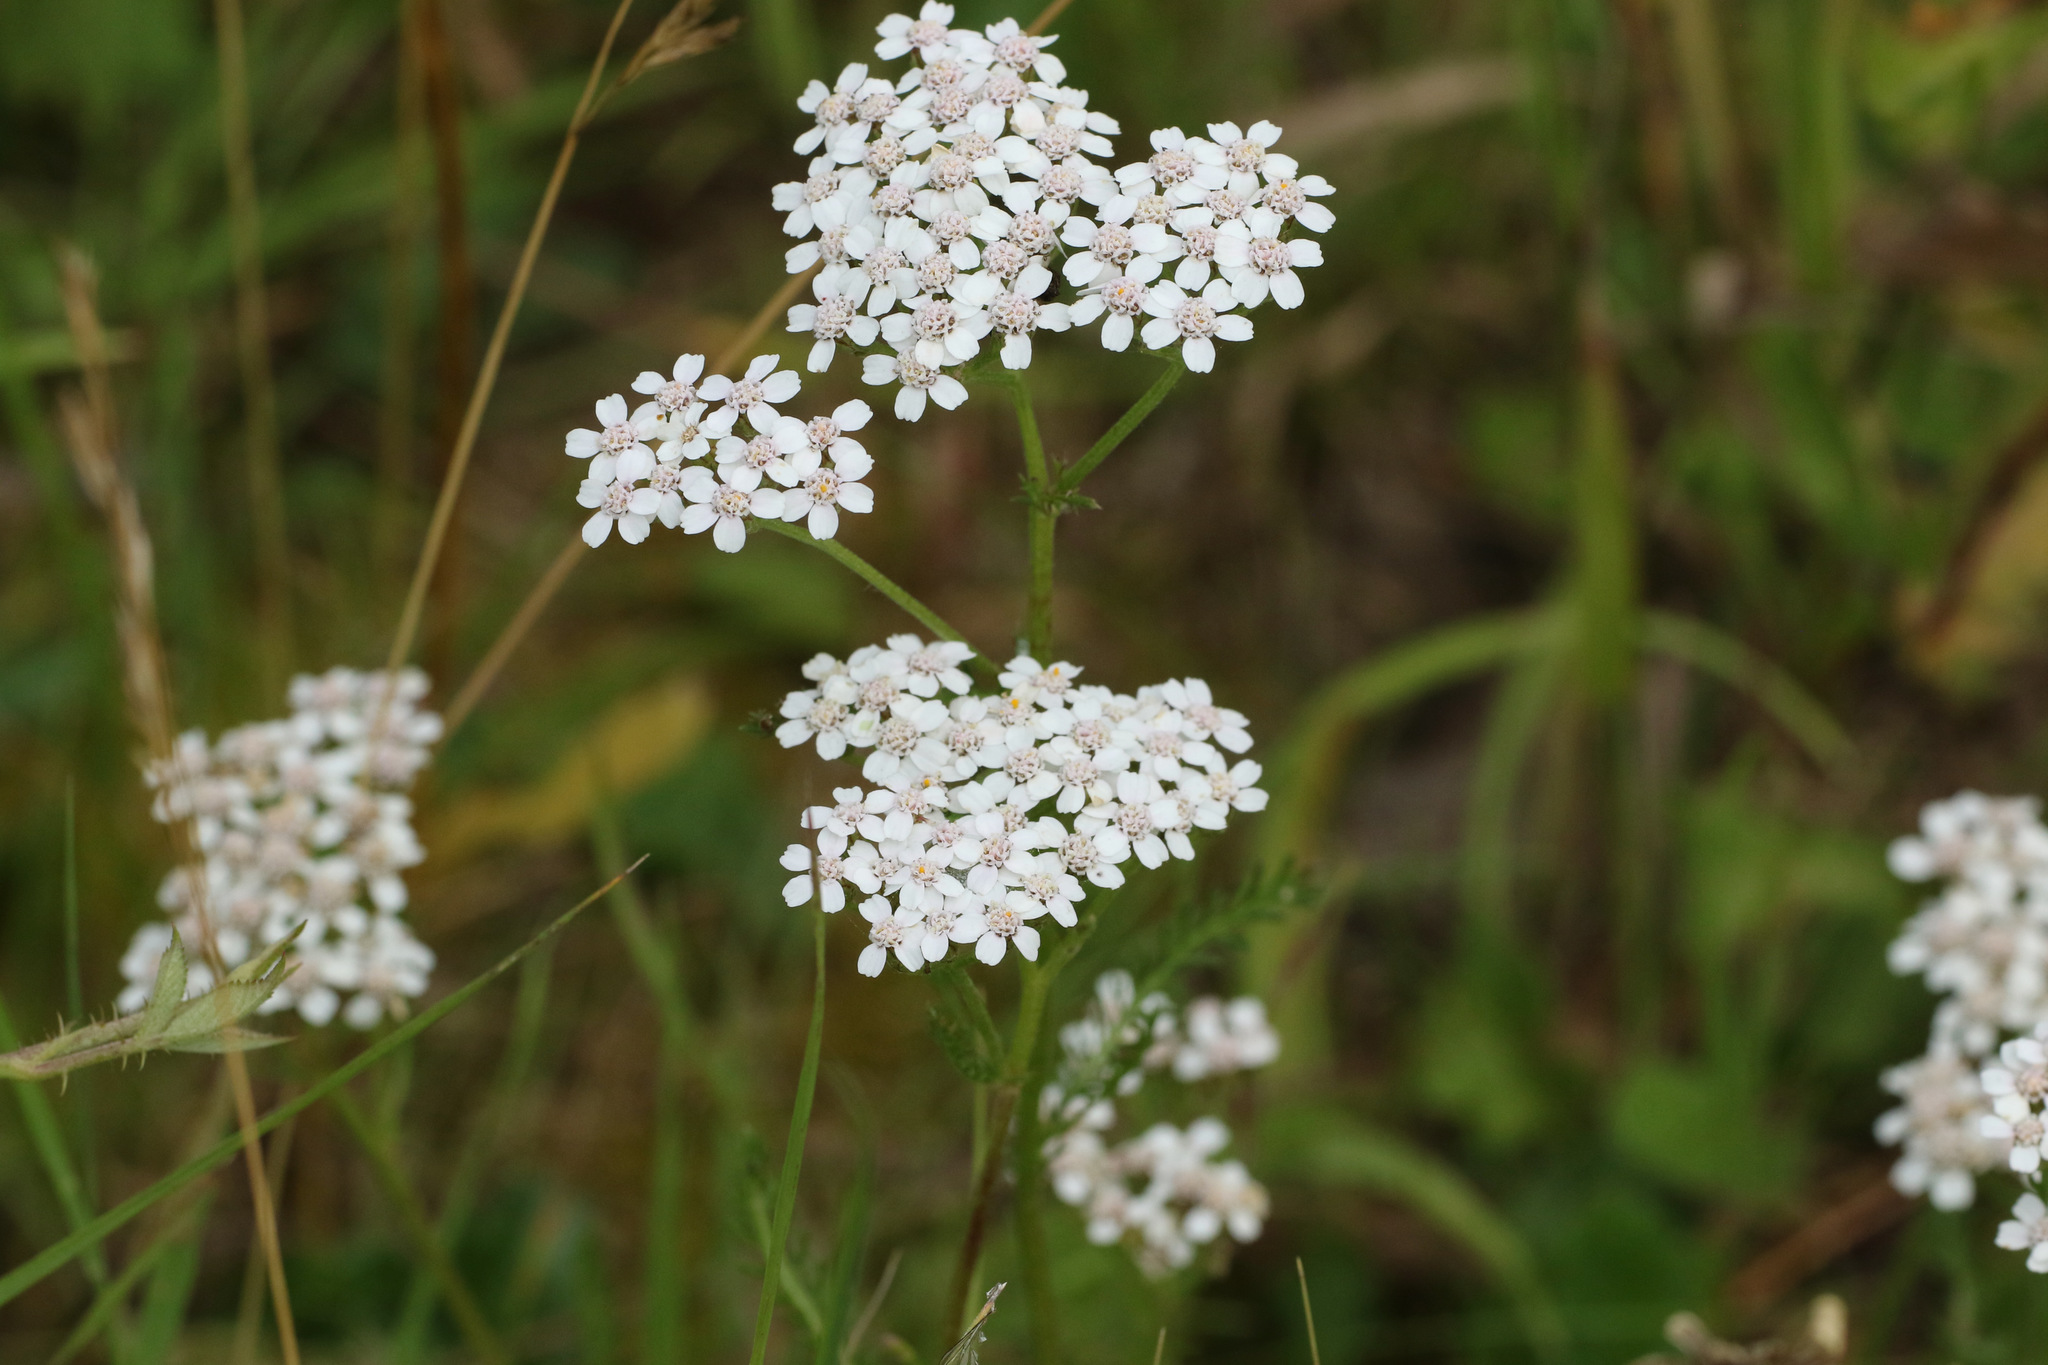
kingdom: Plantae
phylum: Tracheophyta
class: Magnoliopsida
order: Asterales
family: Asteraceae
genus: Achillea
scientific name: Achillea millefolium
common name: Yarrow
